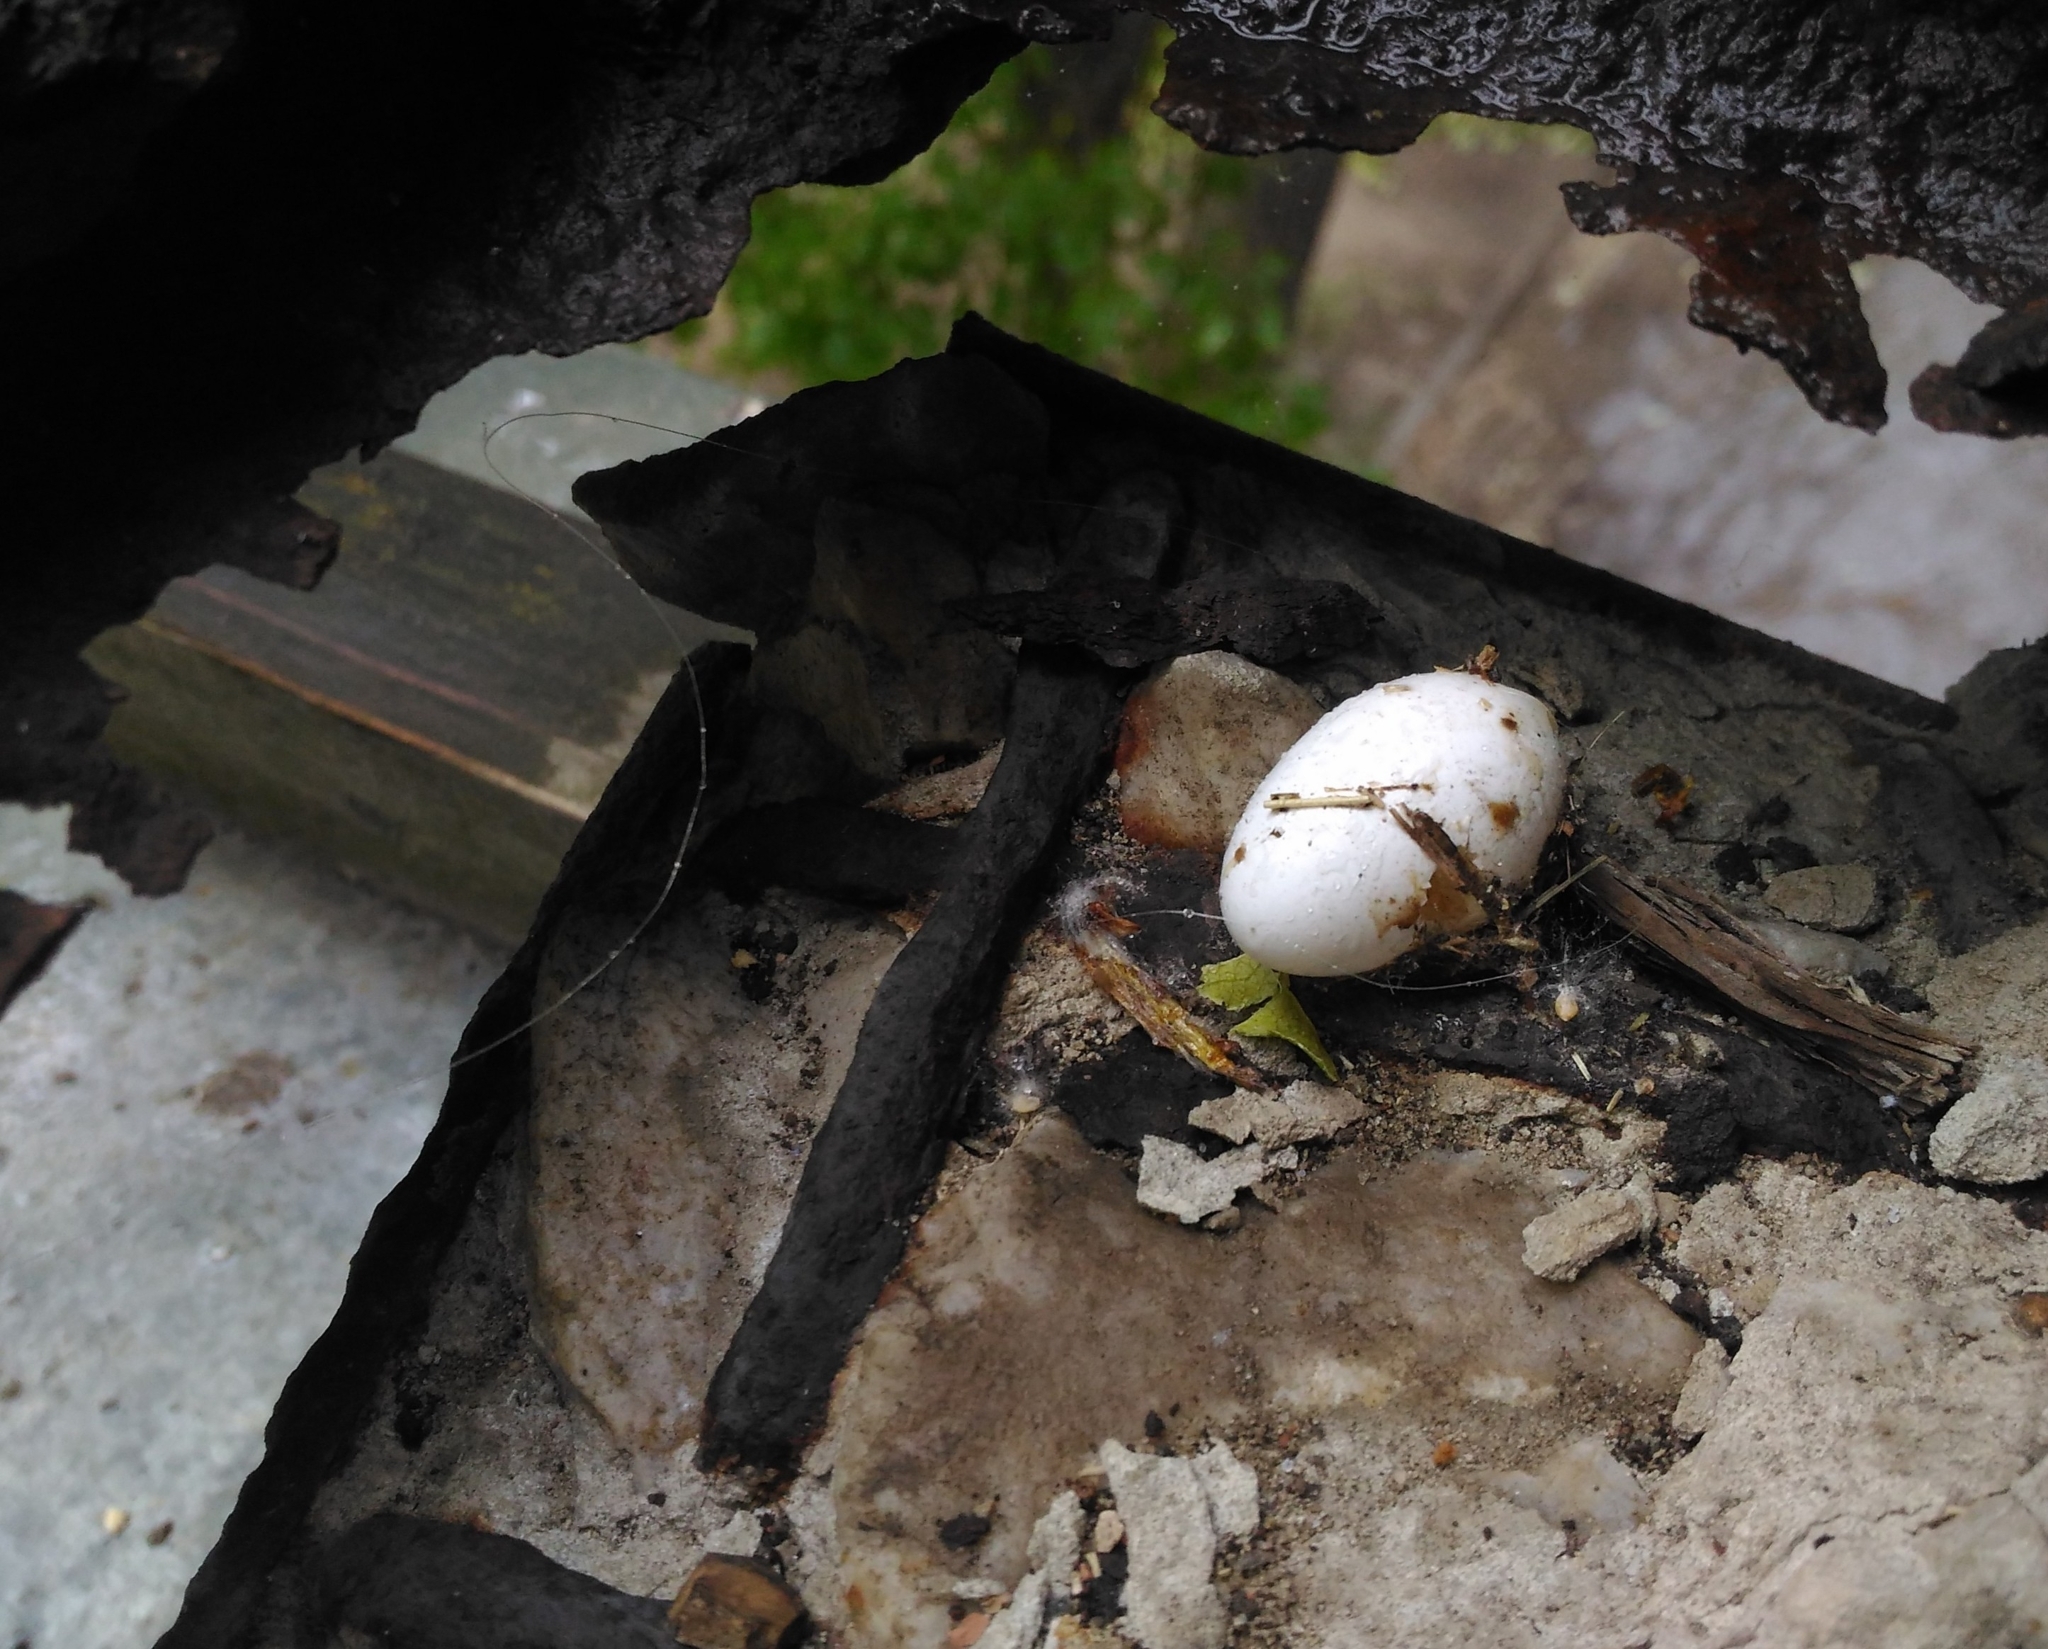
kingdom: Animalia
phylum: Chordata
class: Aves
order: Columbiformes
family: Columbidae
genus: Columba
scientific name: Columba livia
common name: Rock pigeon
